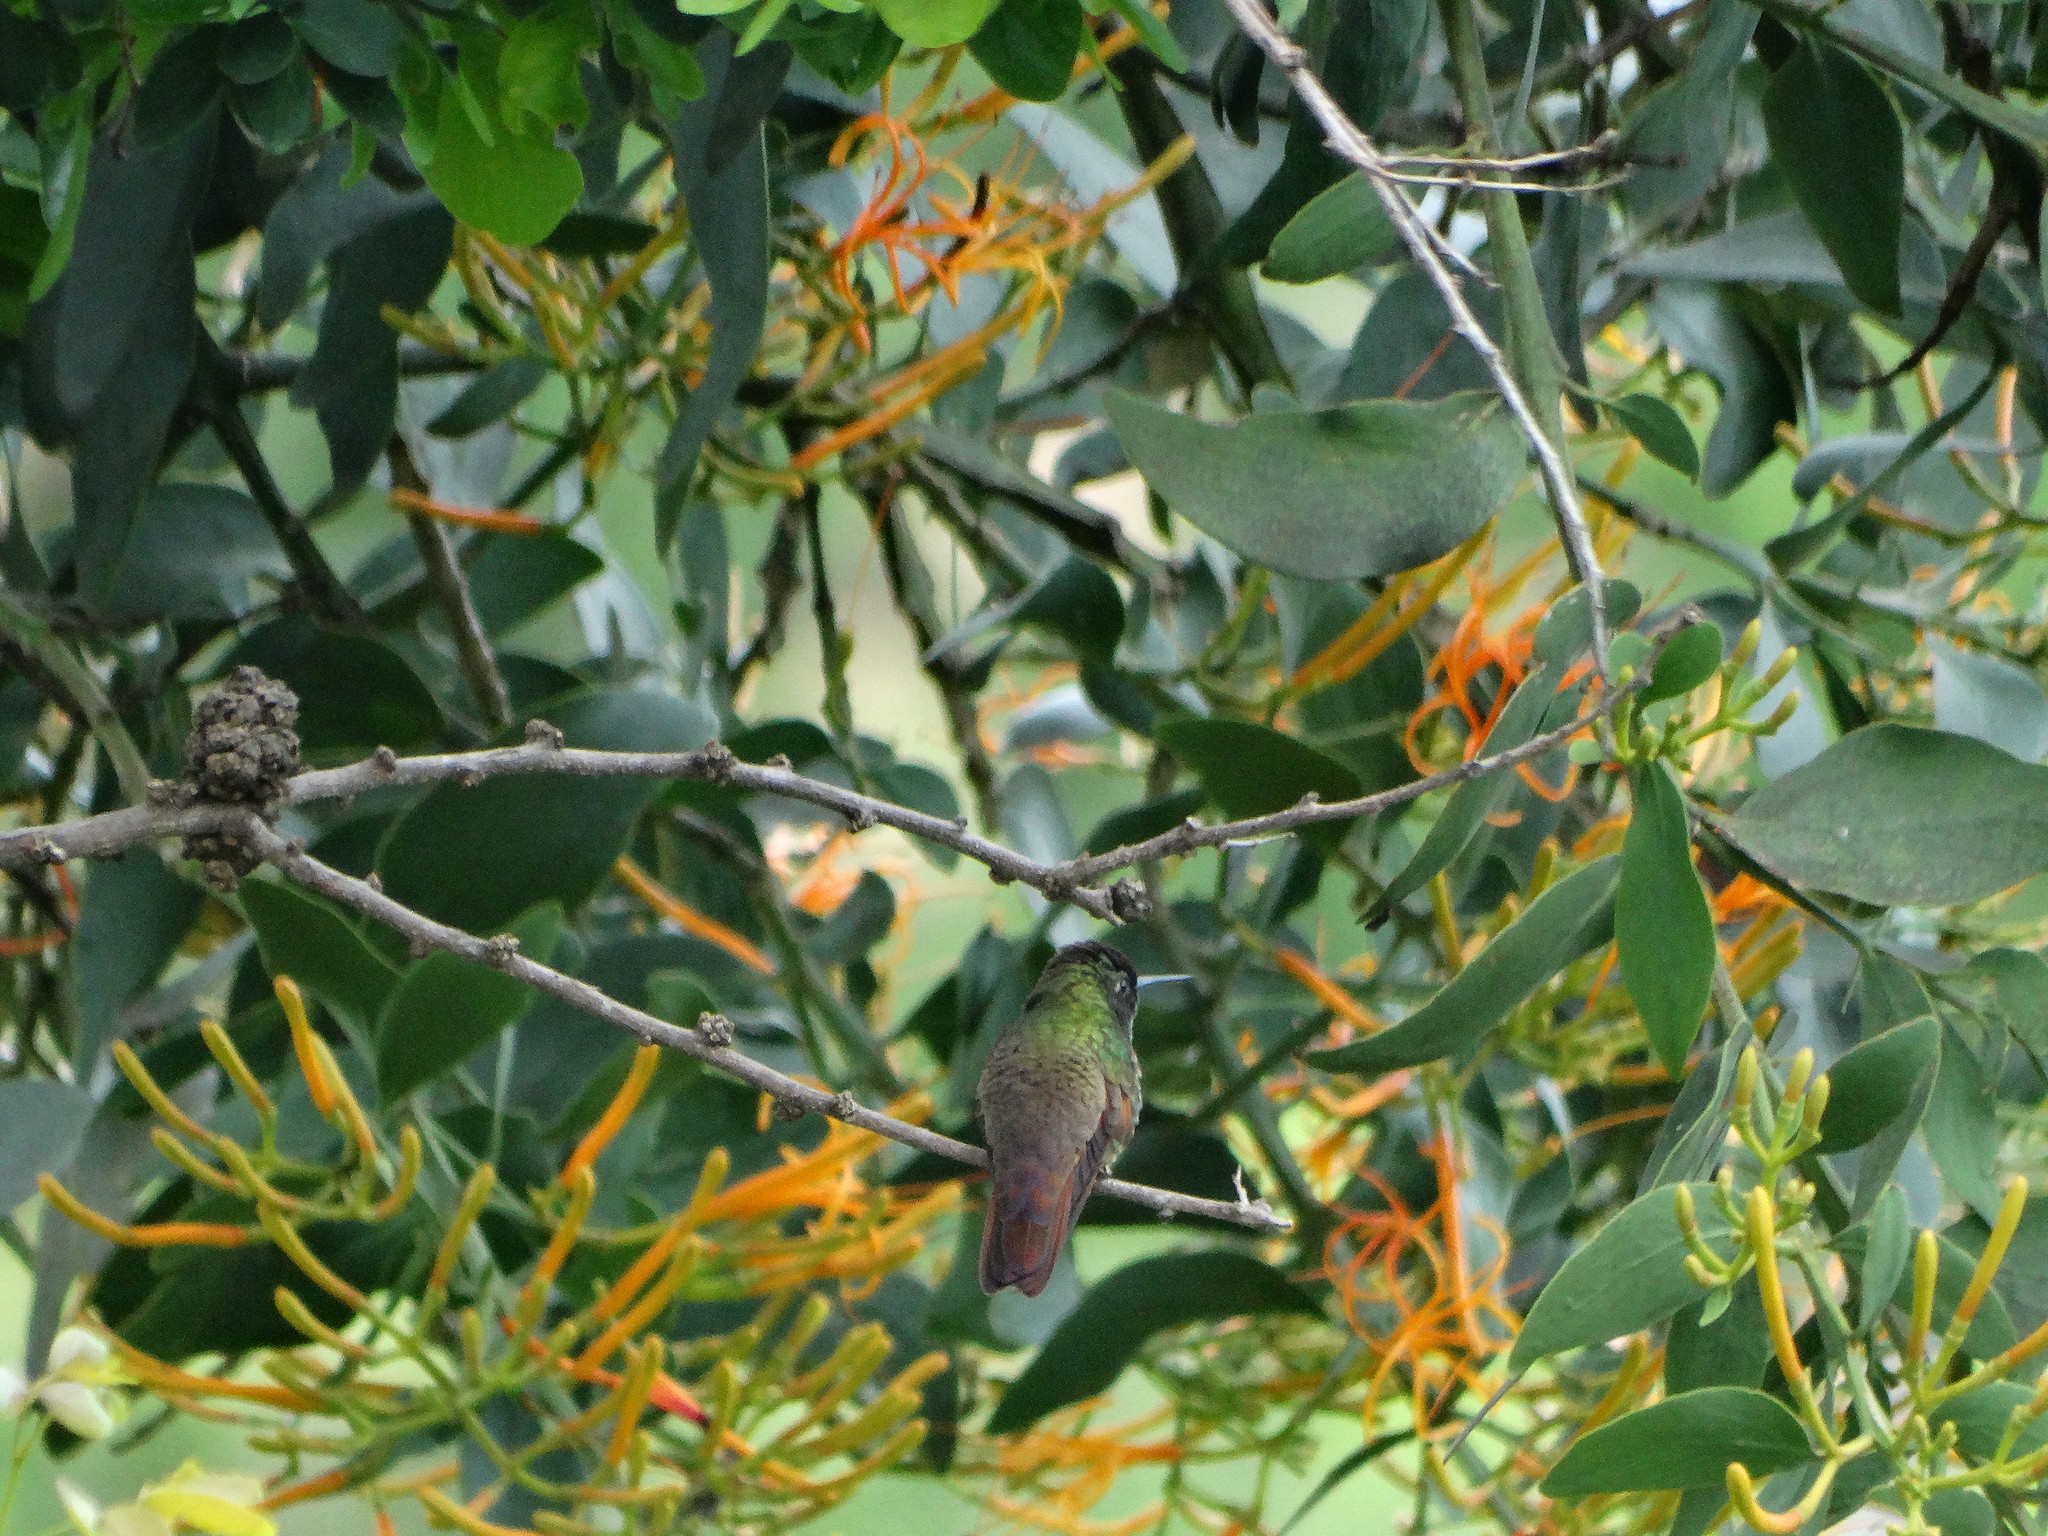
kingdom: Animalia
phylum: Chordata
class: Aves
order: Apodiformes
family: Trochilidae
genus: Saucerottia
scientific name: Saucerottia beryllina
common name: Berylline hummingbird
